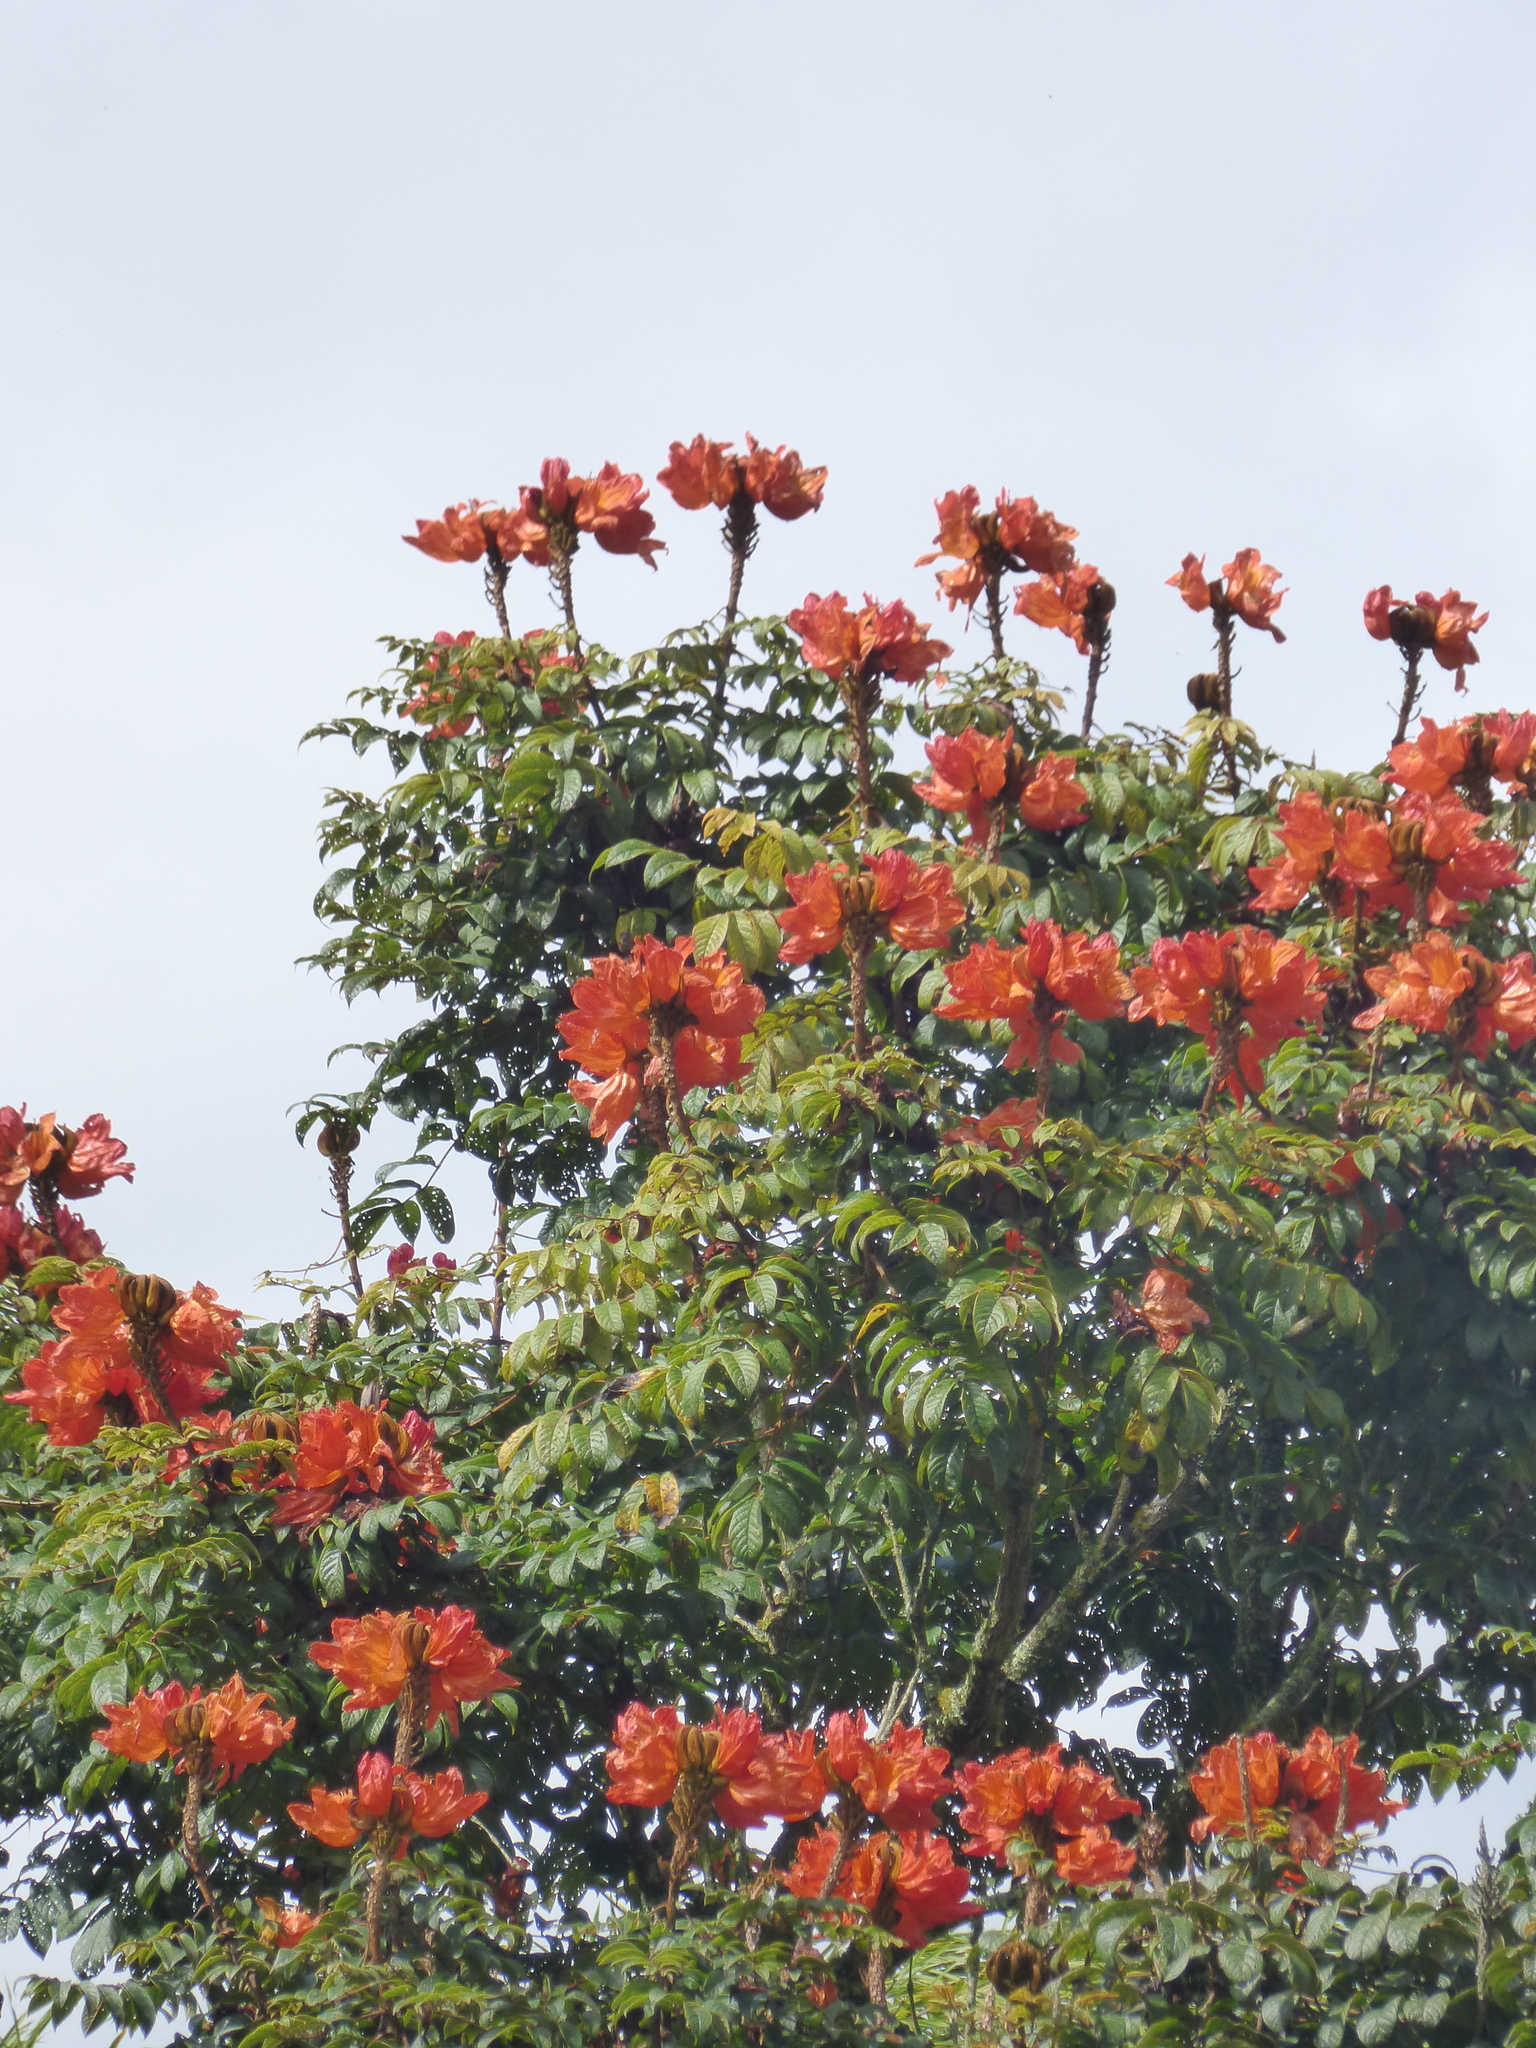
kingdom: Plantae
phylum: Tracheophyta
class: Magnoliopsida
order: Lamiales
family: Bignoniaceae
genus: Spathodea
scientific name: Spathodea campanulata
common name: African tuliptree
